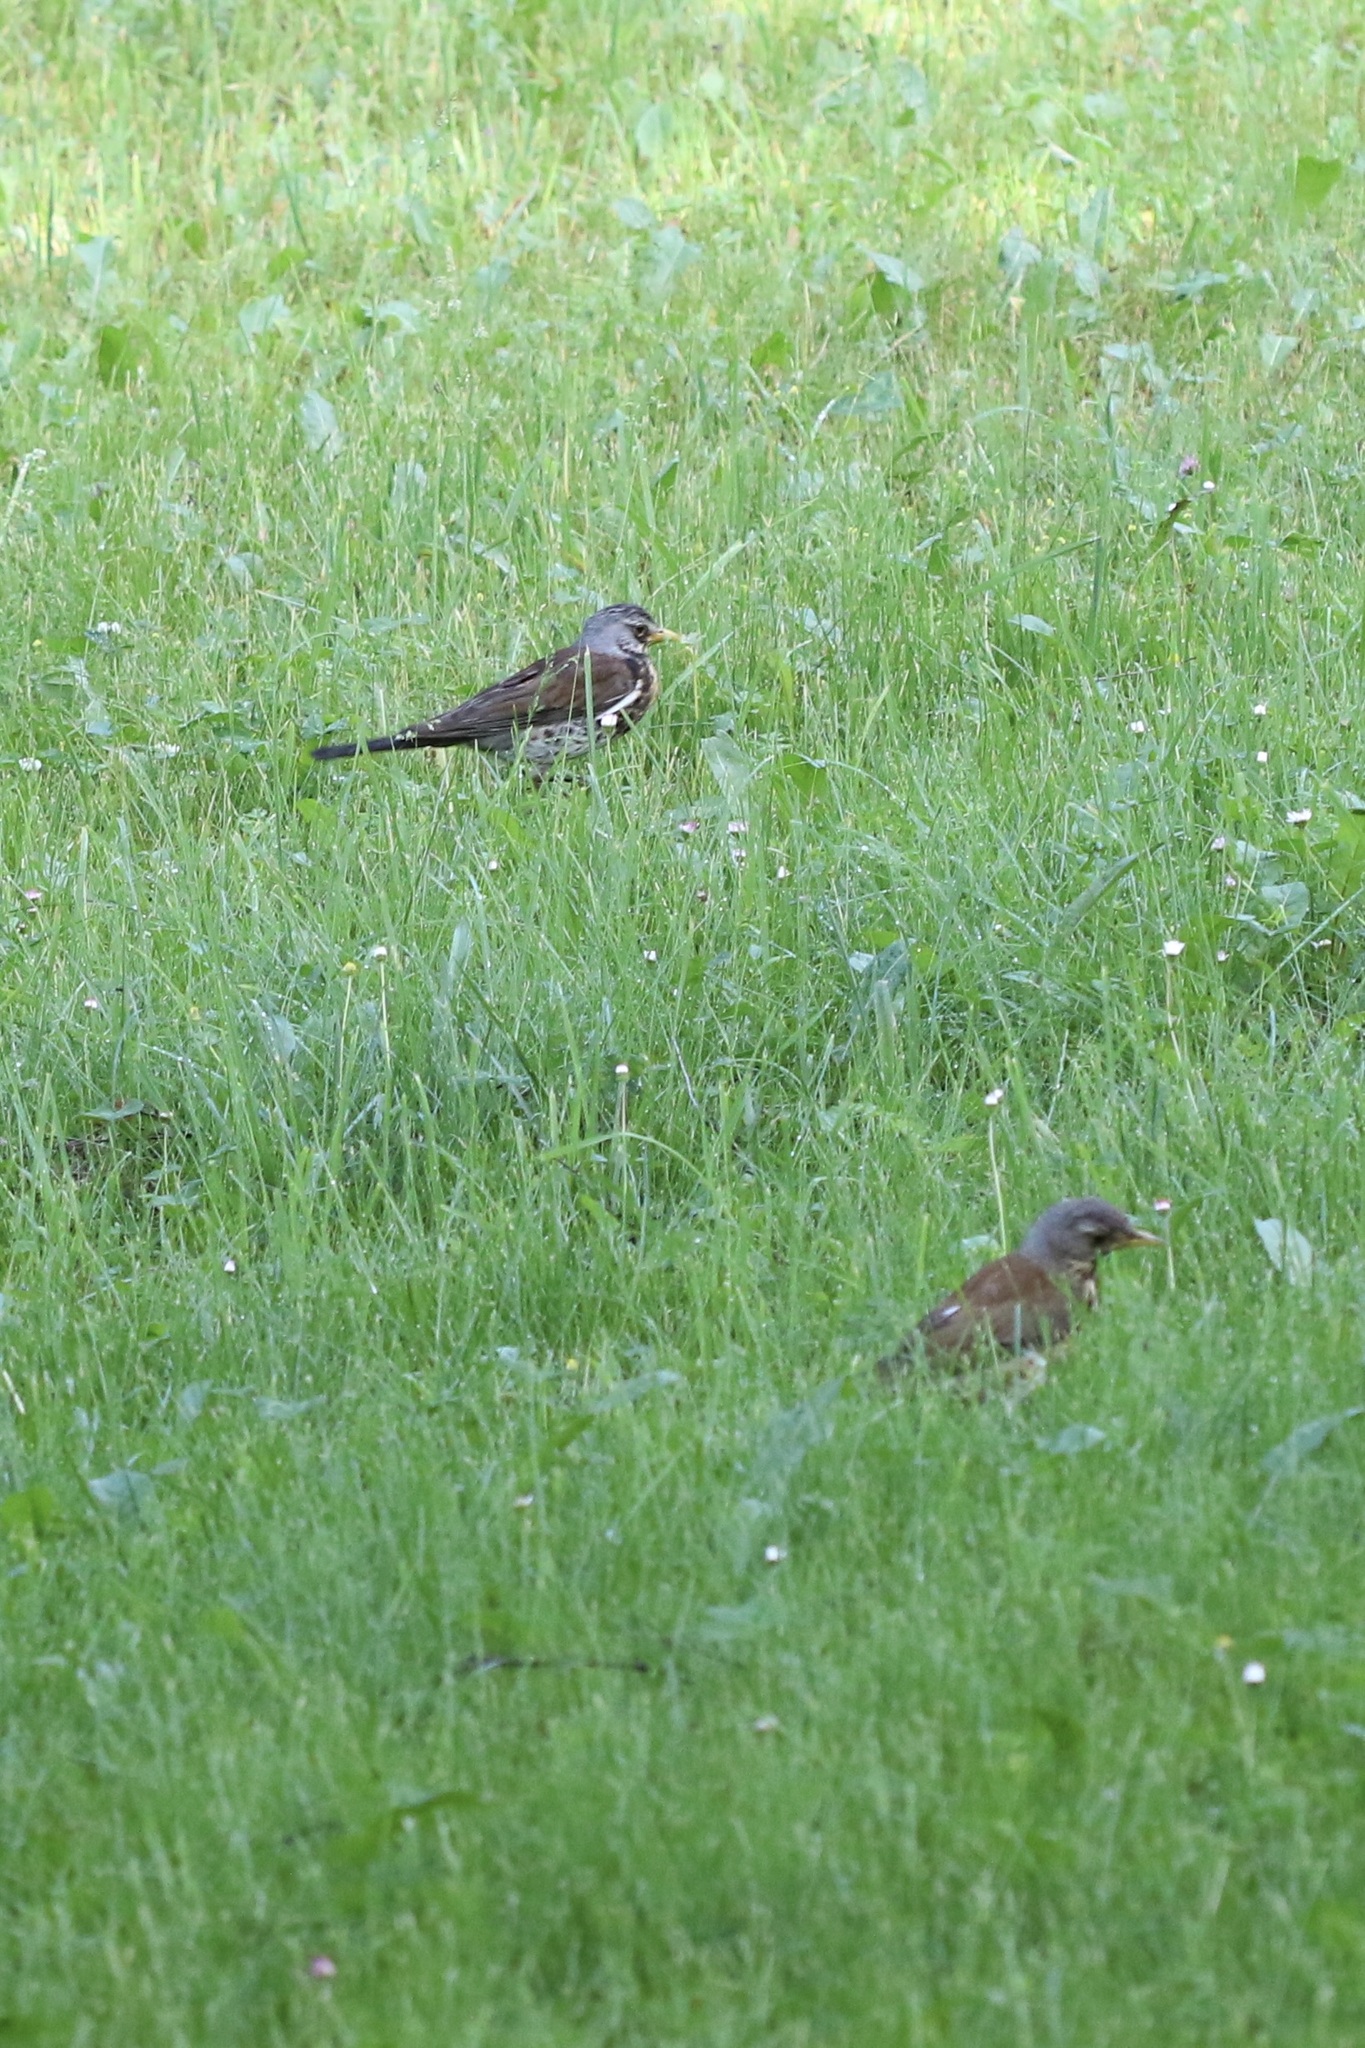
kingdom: Animalia
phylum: Chordata
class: Aves
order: Passeriformes
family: Turdidae
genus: Turdus
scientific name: Turdus pilaris
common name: Fieldfare
